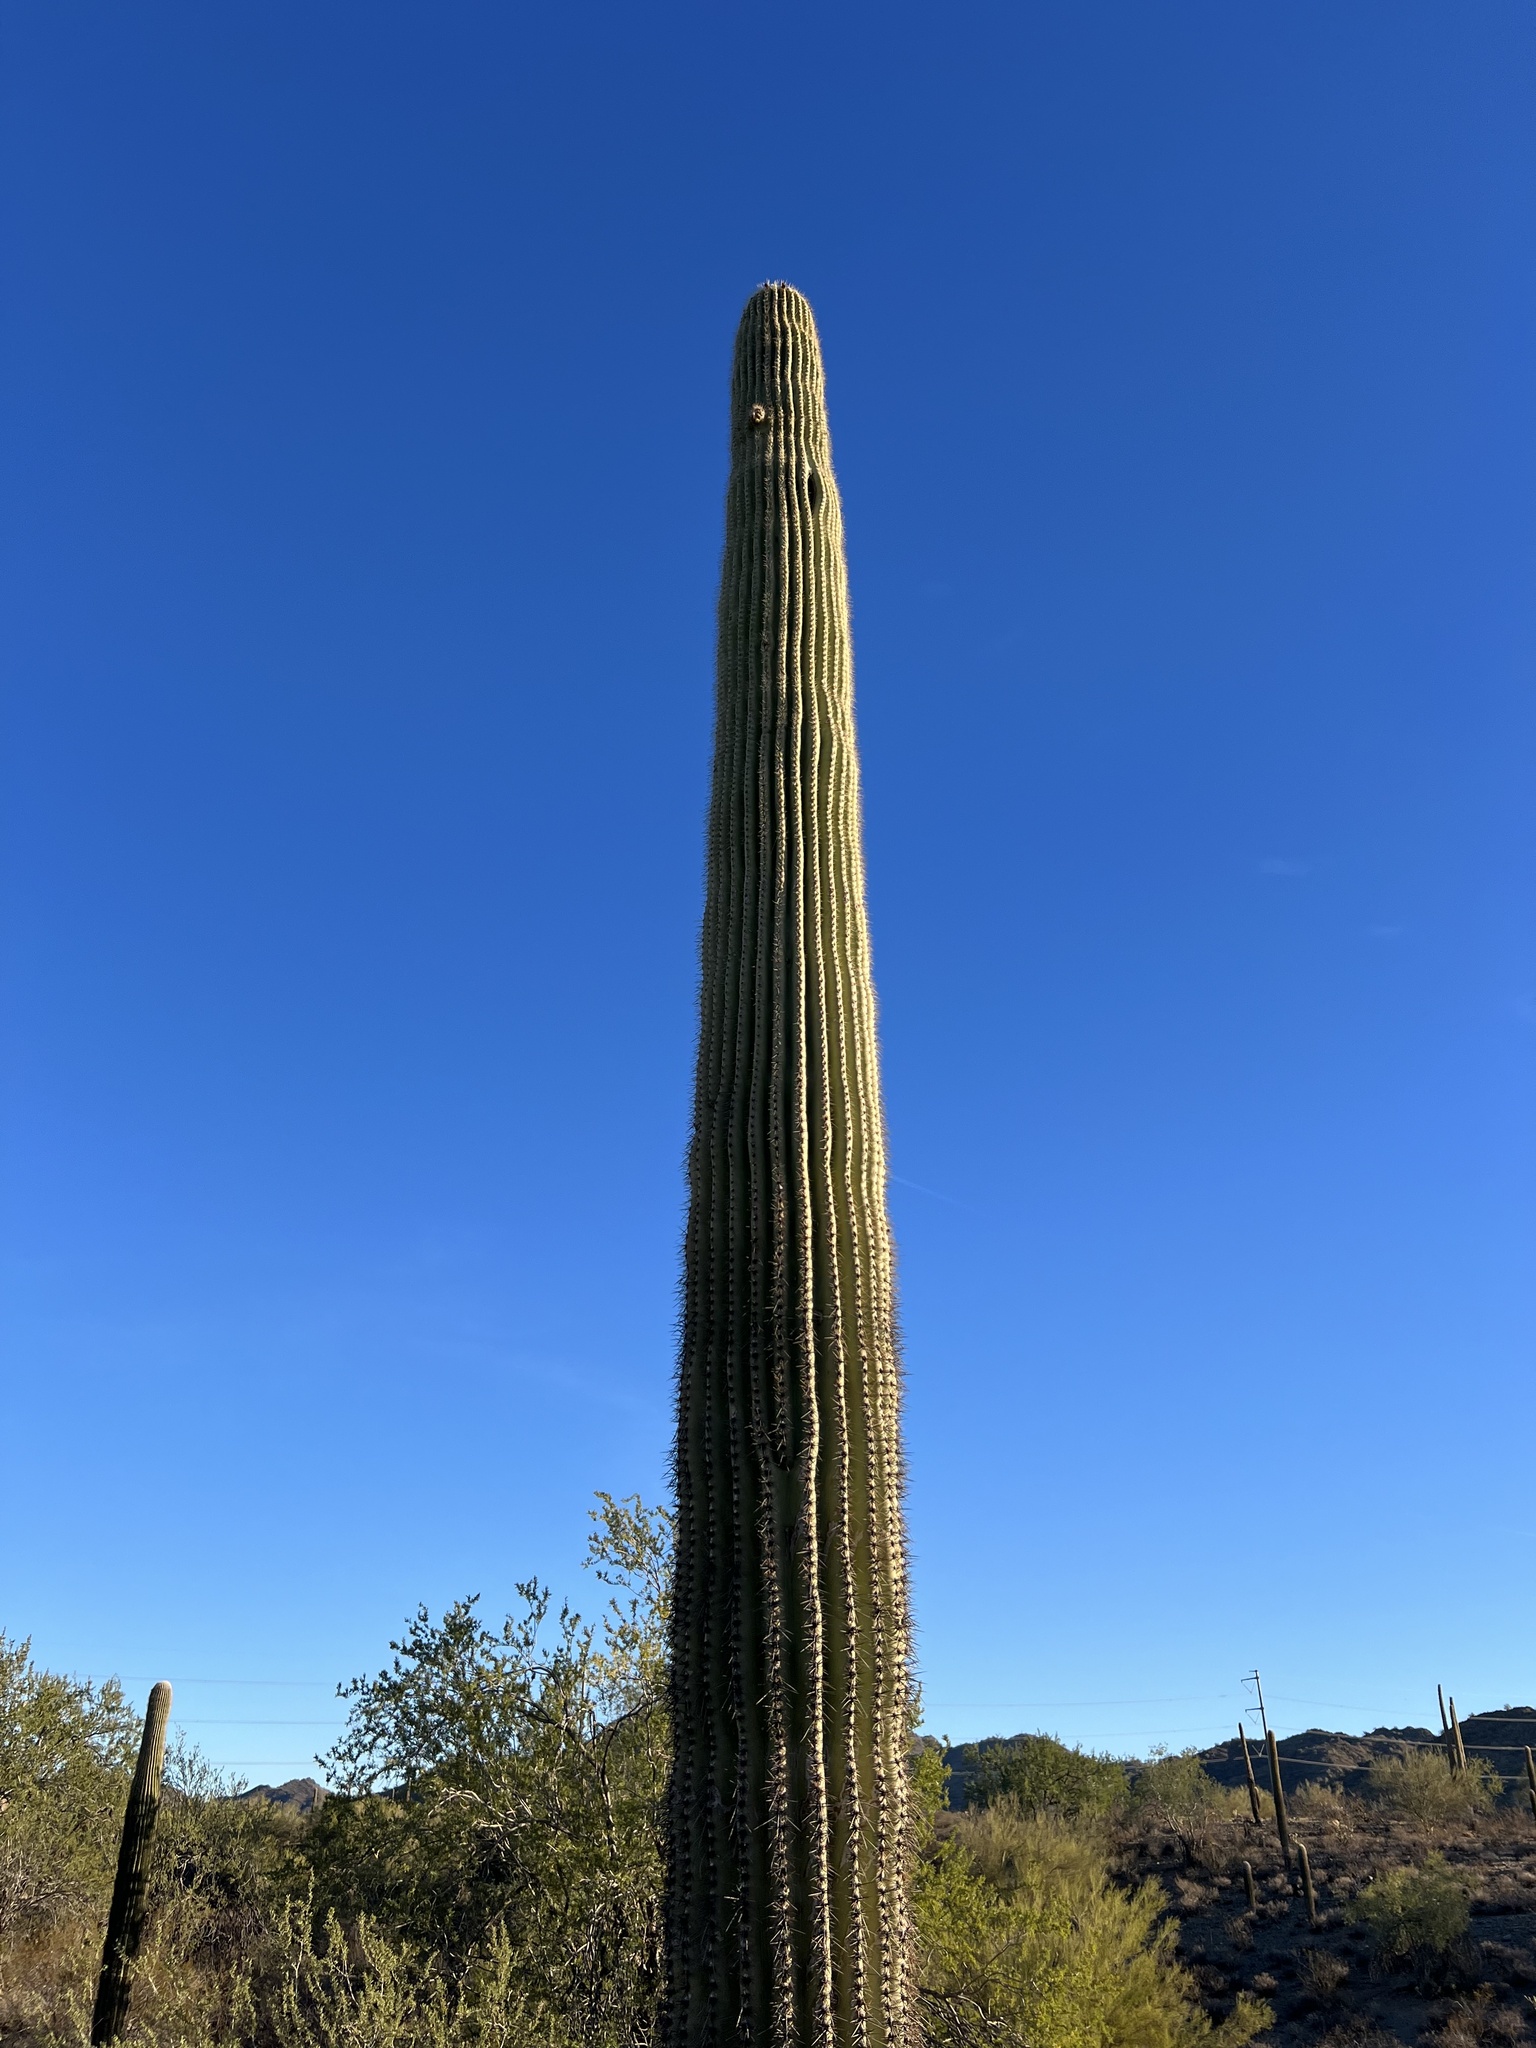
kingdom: Plantae
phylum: Tracheophyta
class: Magnoliopsida
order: Caryophyllales
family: Cactaceae
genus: Carnegiea
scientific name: Carnegiea gigantea
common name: Saguaro
